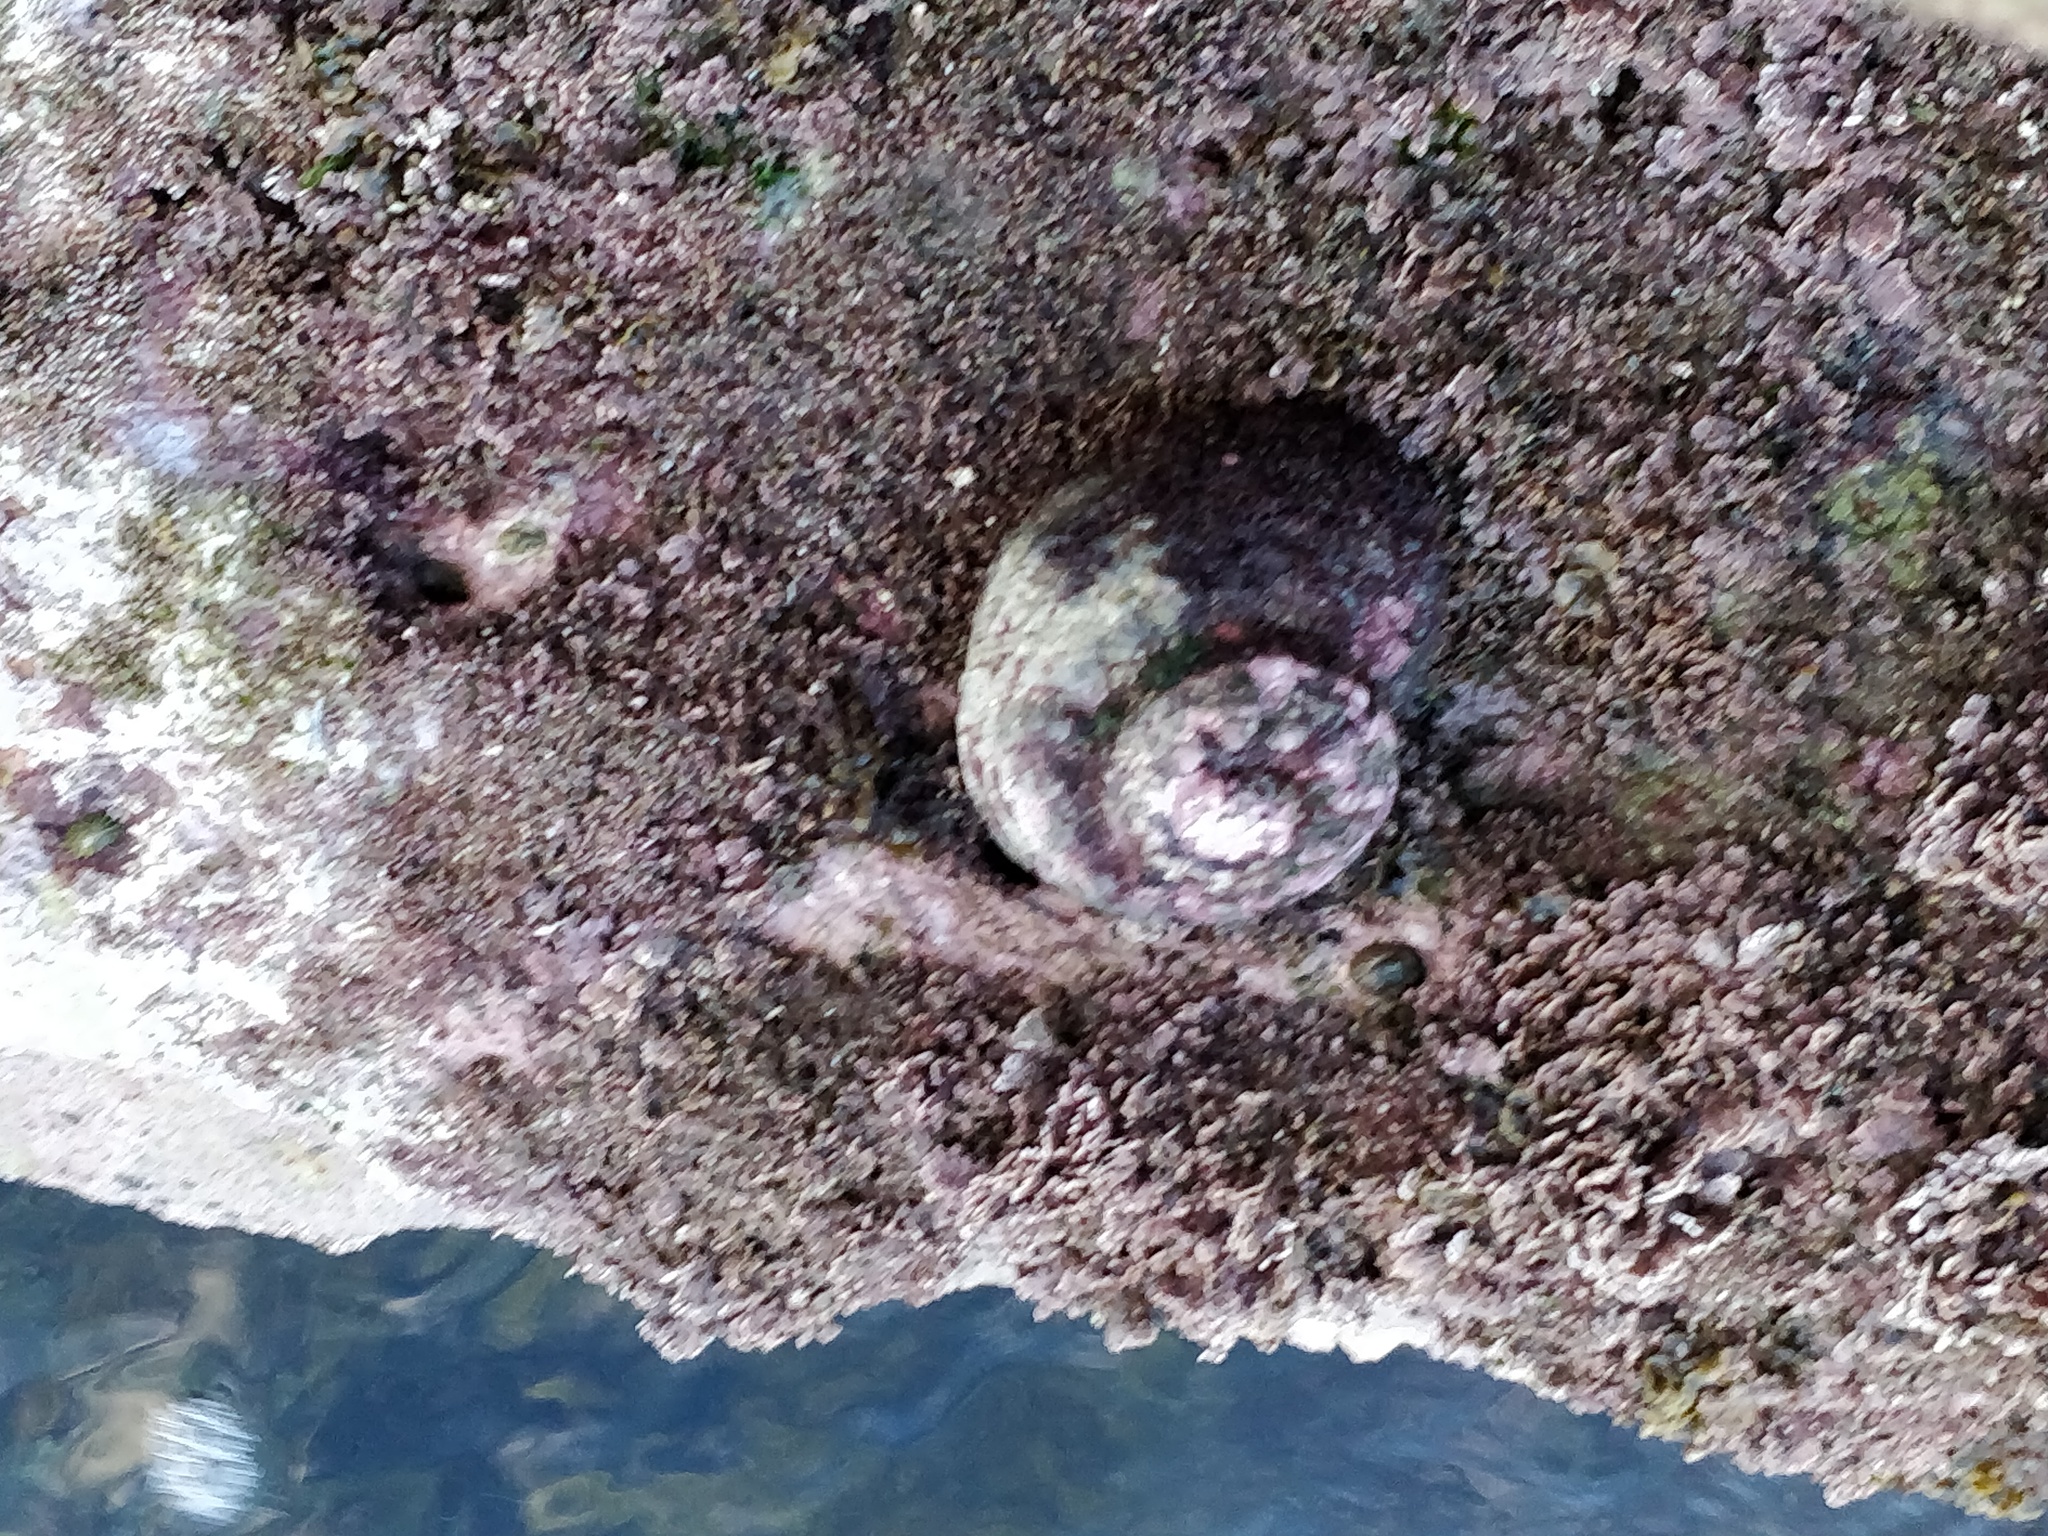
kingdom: Animalia
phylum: Mollusca
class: Gastropoda
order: Trochida
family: Turbinidae
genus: Lunella
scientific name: Lunella torquata
